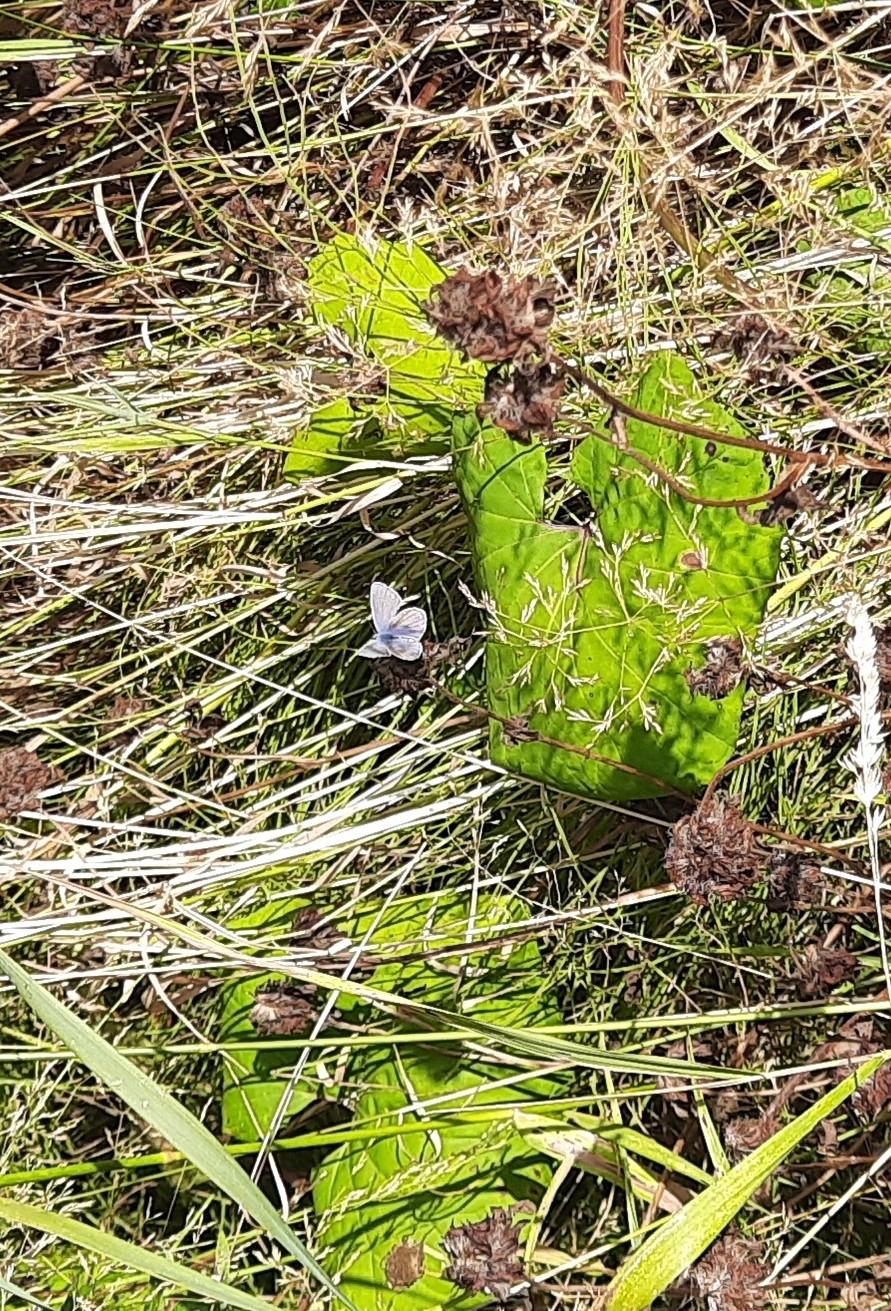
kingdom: Animalia
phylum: Arthropoda
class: Insecta
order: Lepidoptera
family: Lycaenidae
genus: Polyommatus
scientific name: Polyommatus icarus
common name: Common blue
